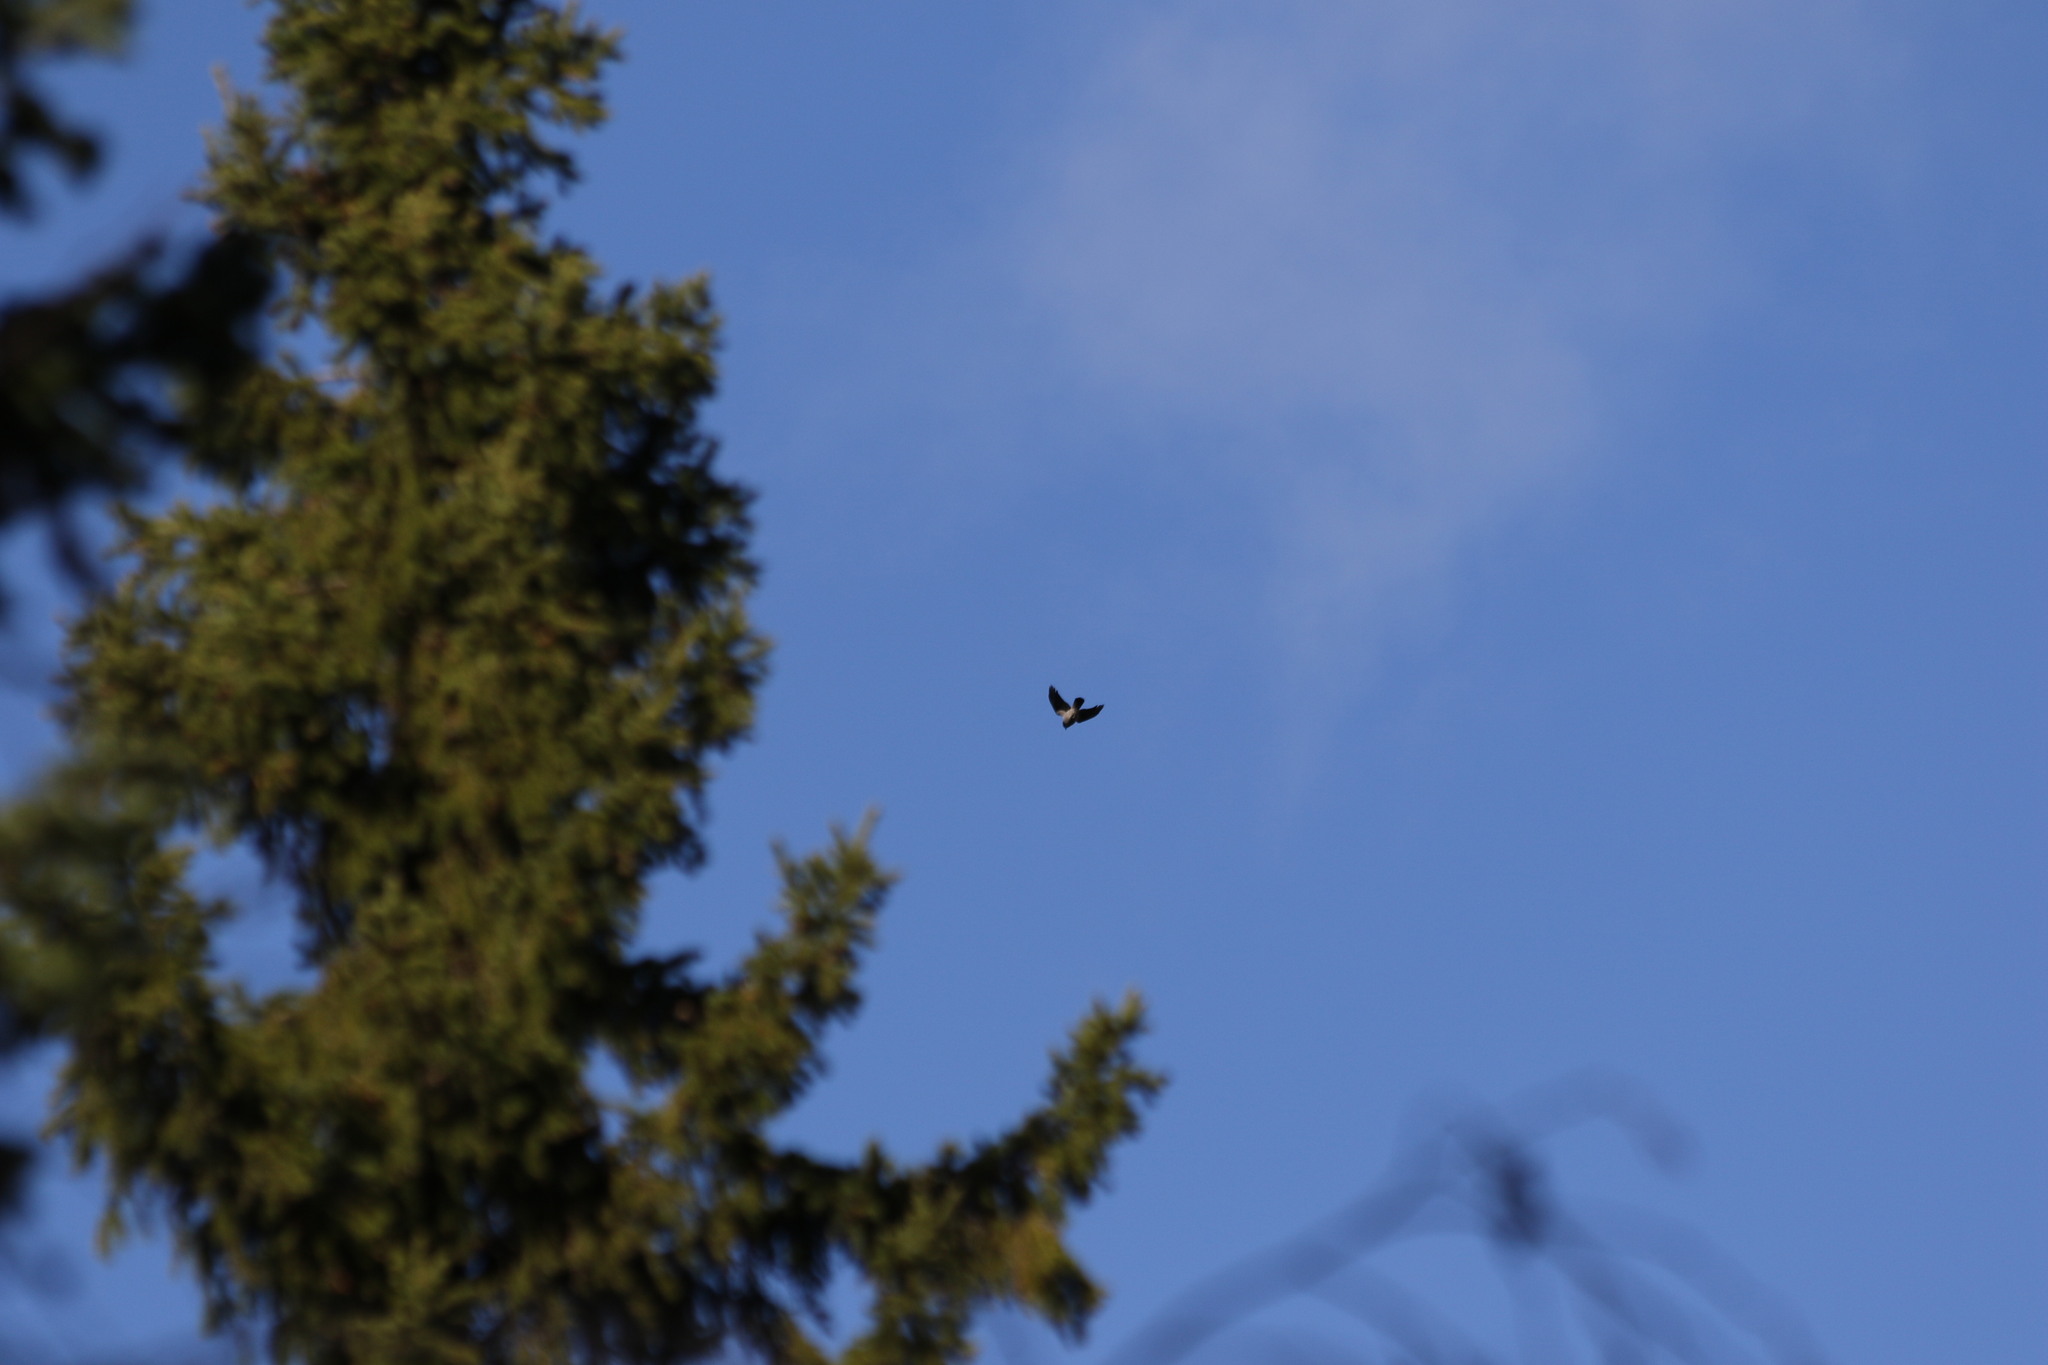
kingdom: Animalia
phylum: Chordata
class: Aves
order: Passeriformes
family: Corvidae
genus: Corvus
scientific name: Corvus cornix
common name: Hooded crow
